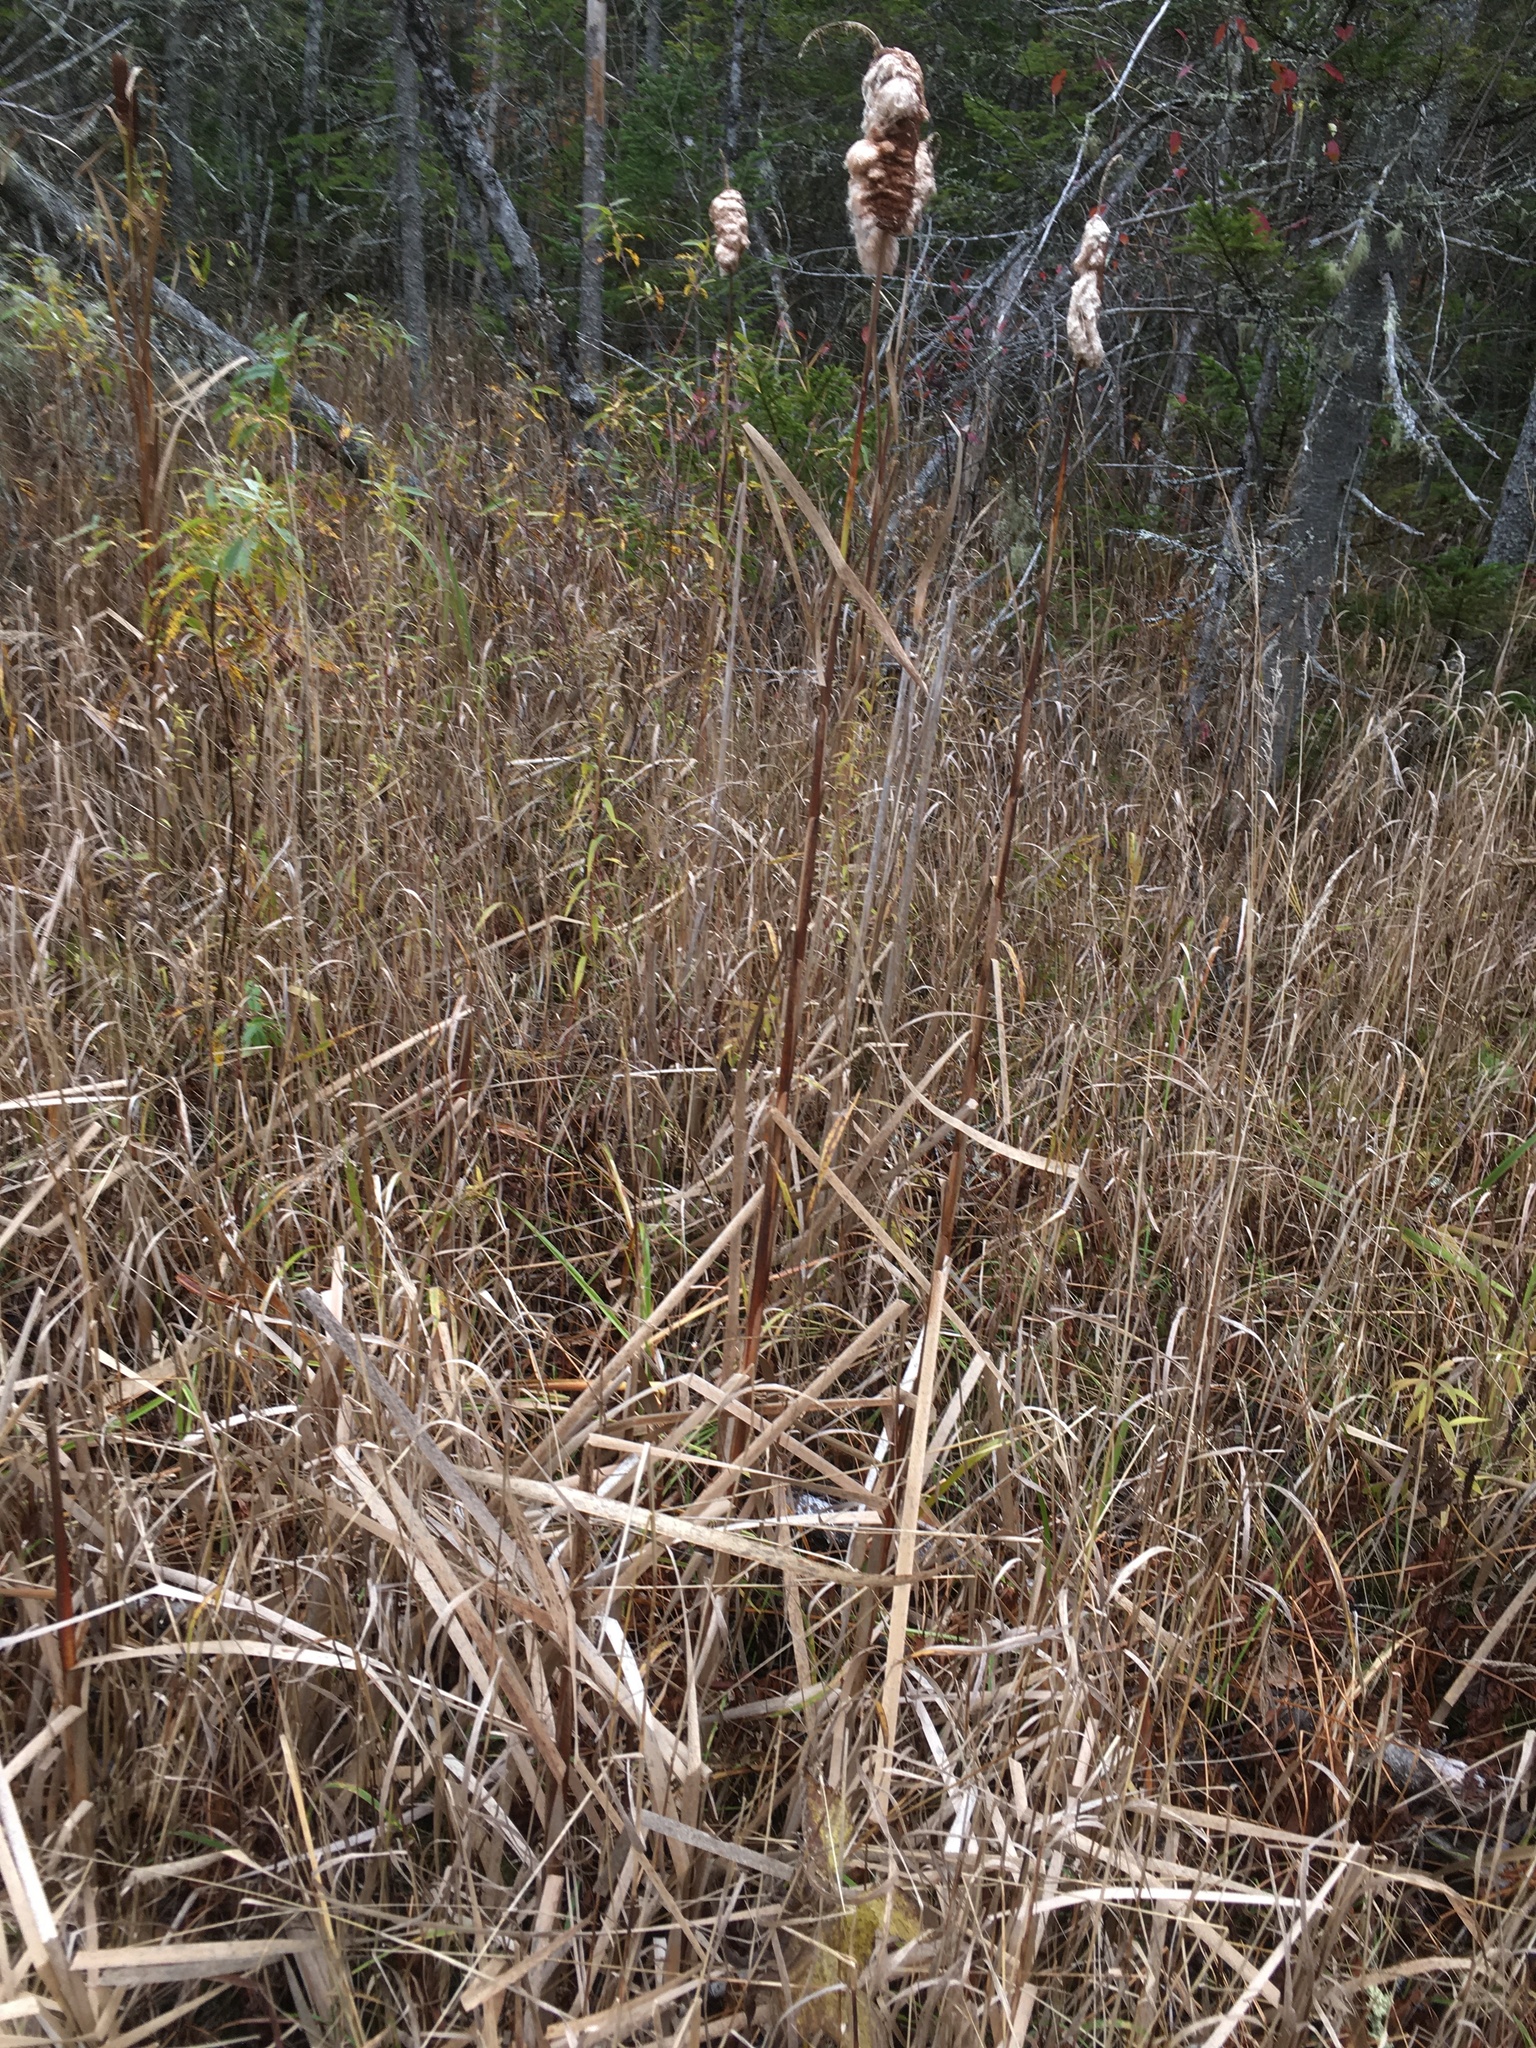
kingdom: Plantae
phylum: Tracheophyta
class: Liliopsida
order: Poales
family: Typhaceae
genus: Typha
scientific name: Typha latifolia
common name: Broadleaf cattail
